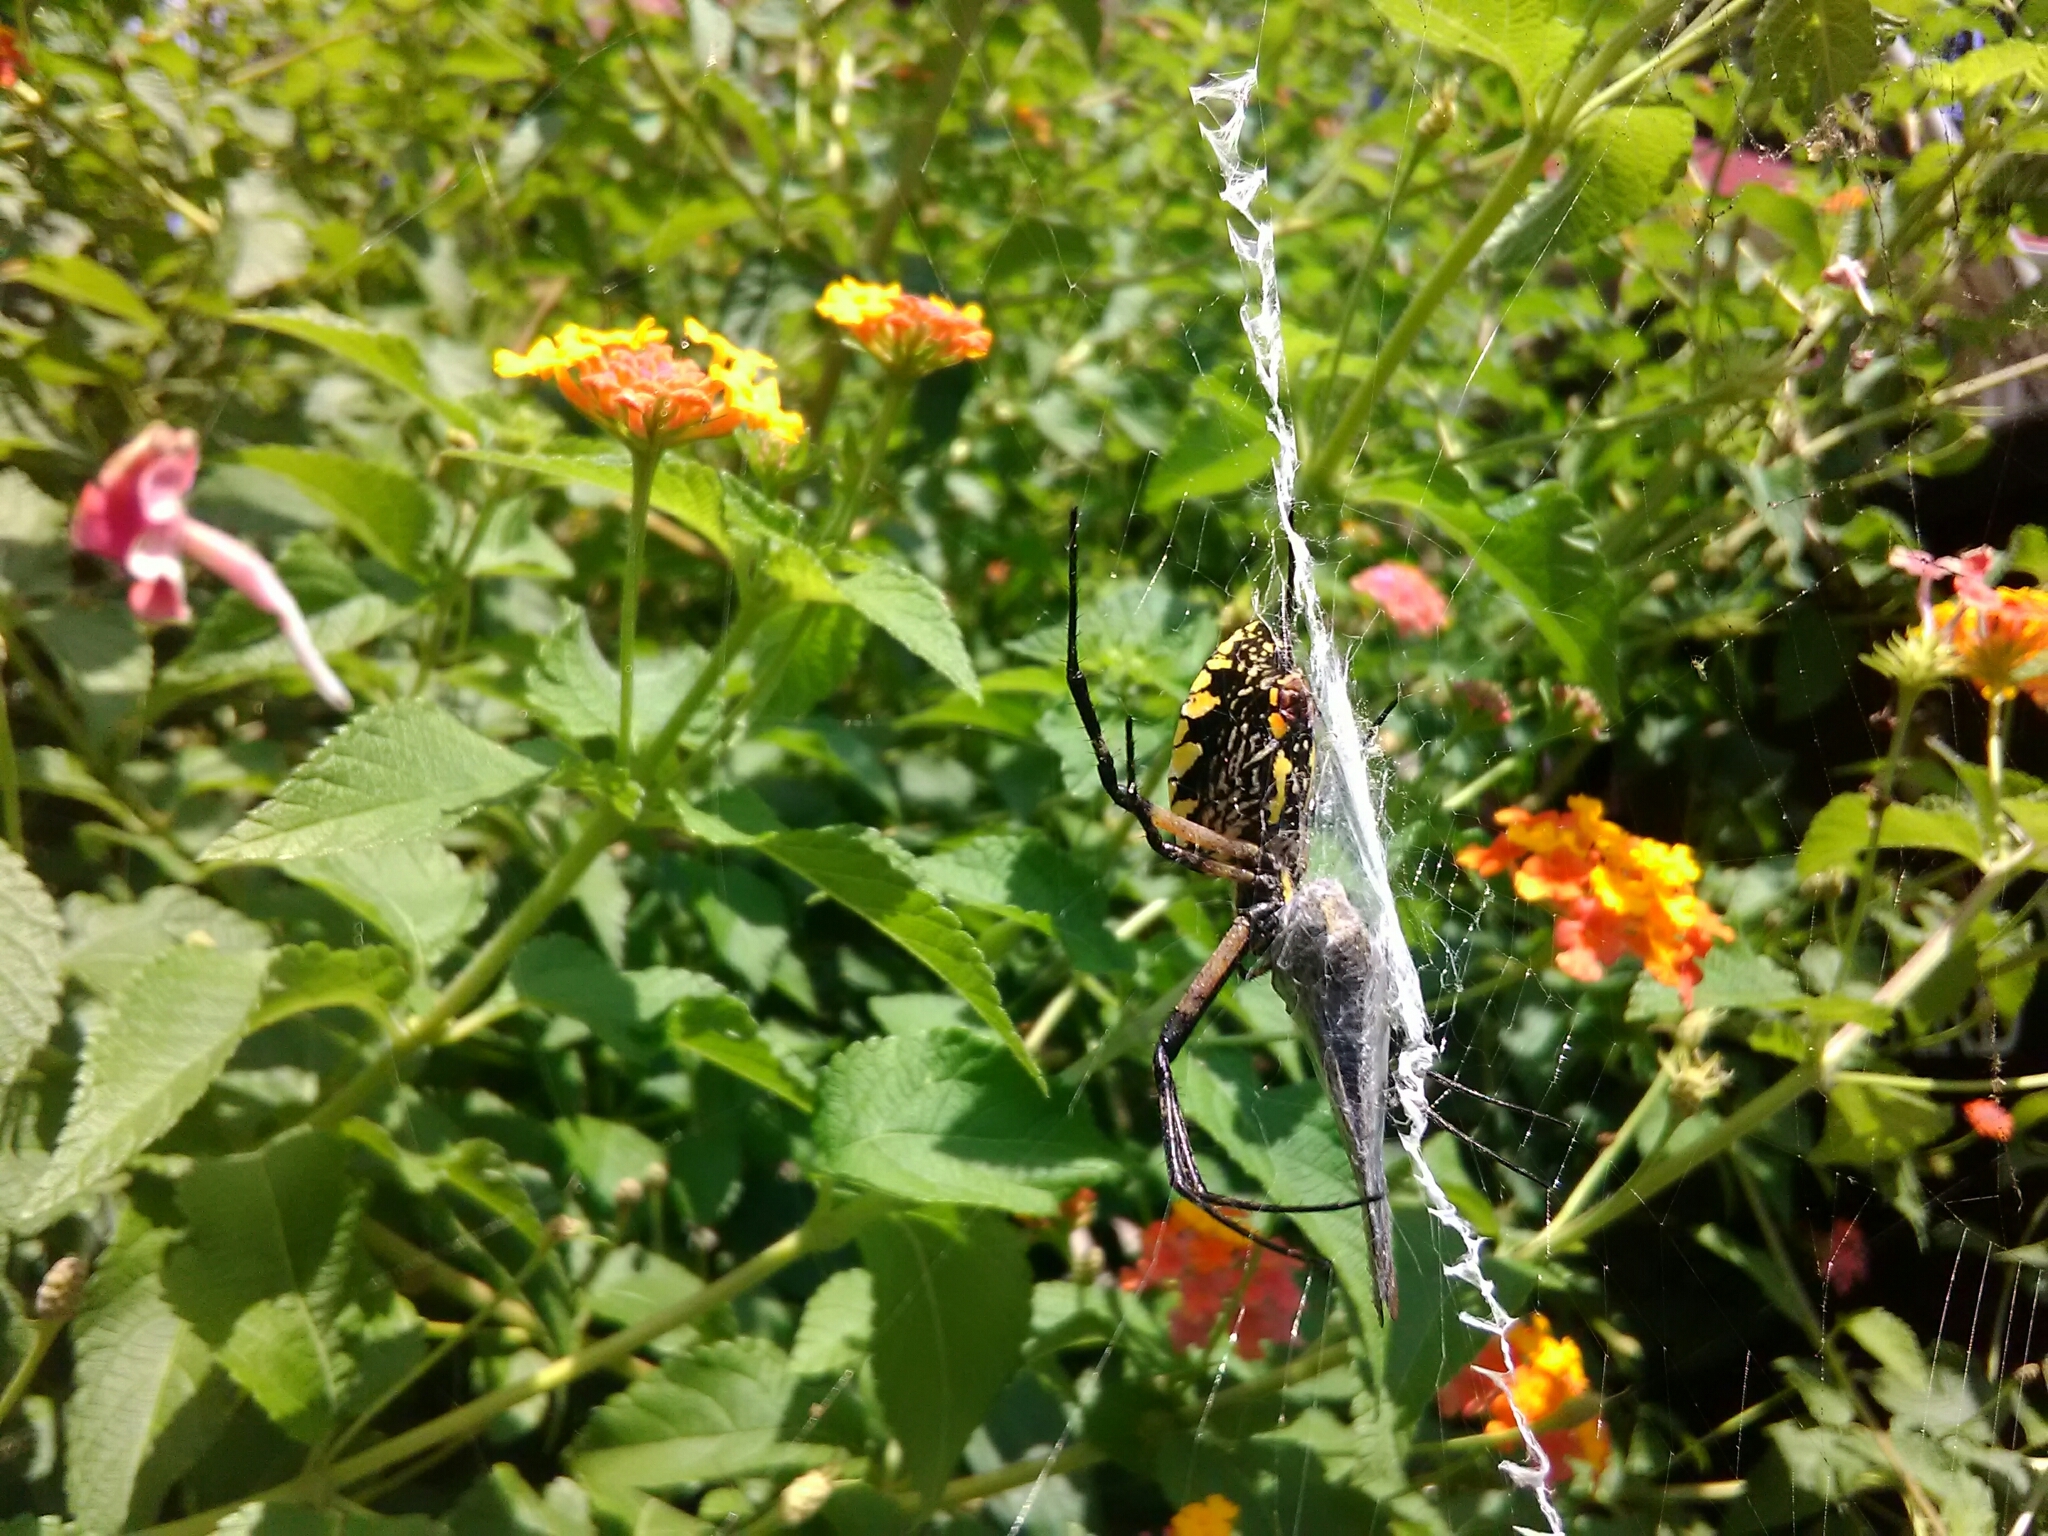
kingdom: Animalia
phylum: Arthropoda
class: Arachnida
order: Araneae
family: Araneidae
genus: Argiope
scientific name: Argiope aurantia
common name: Orb weavers
